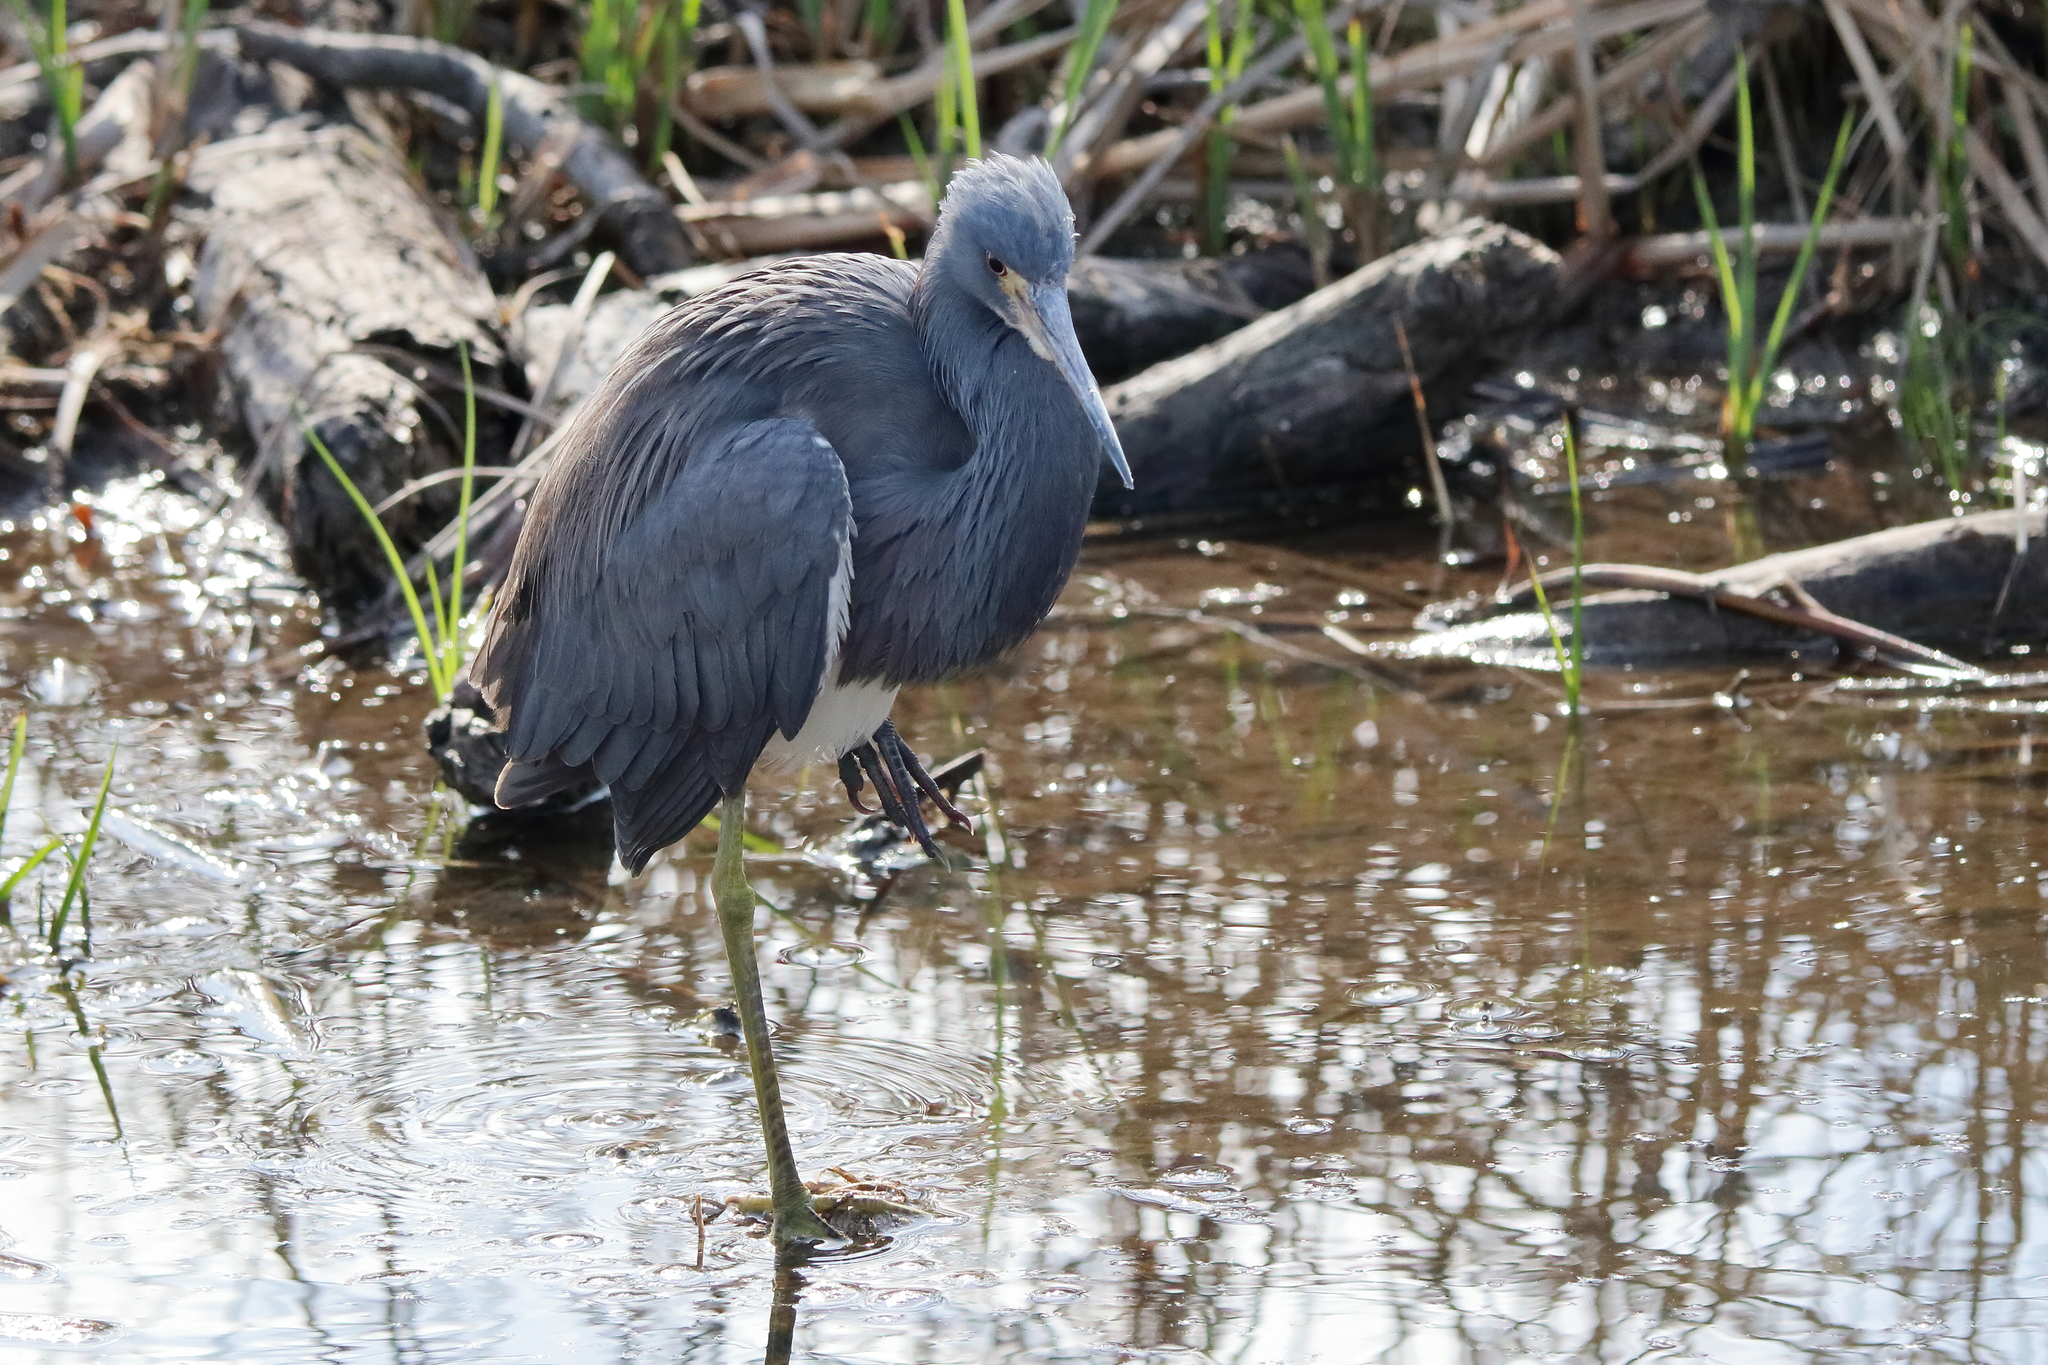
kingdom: Animalia
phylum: Chordata
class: Aves
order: Pelecaniformes
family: Ardeidae
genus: Egretta
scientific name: Egretta tricolor
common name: Tricolored heron
